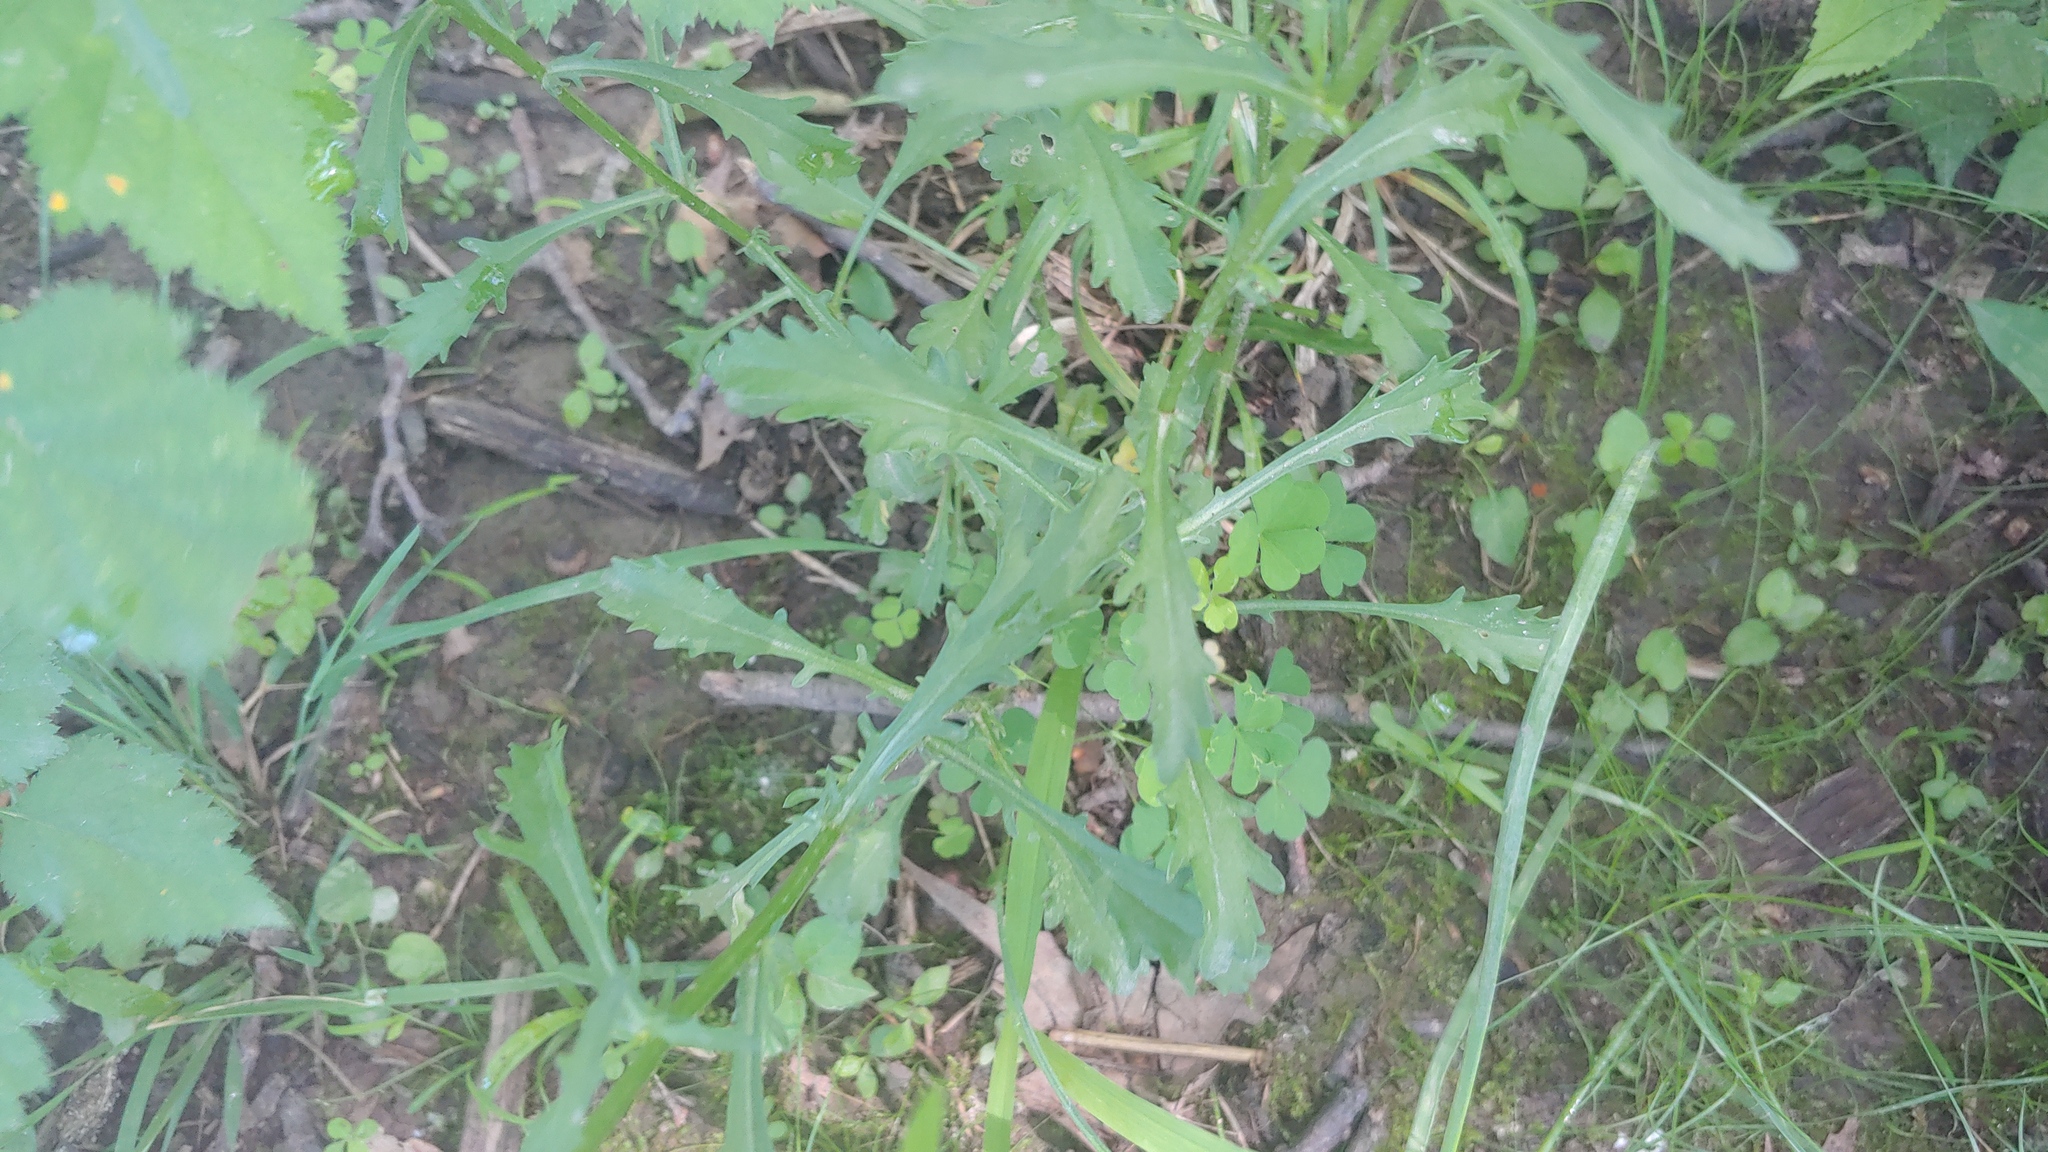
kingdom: Plantae
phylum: Tracheophyta
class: Magnoliopsida
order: Asterales
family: Asteraceae
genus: Leucanthemum
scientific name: Leucanthemum vulgare
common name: Oxeye daisy
